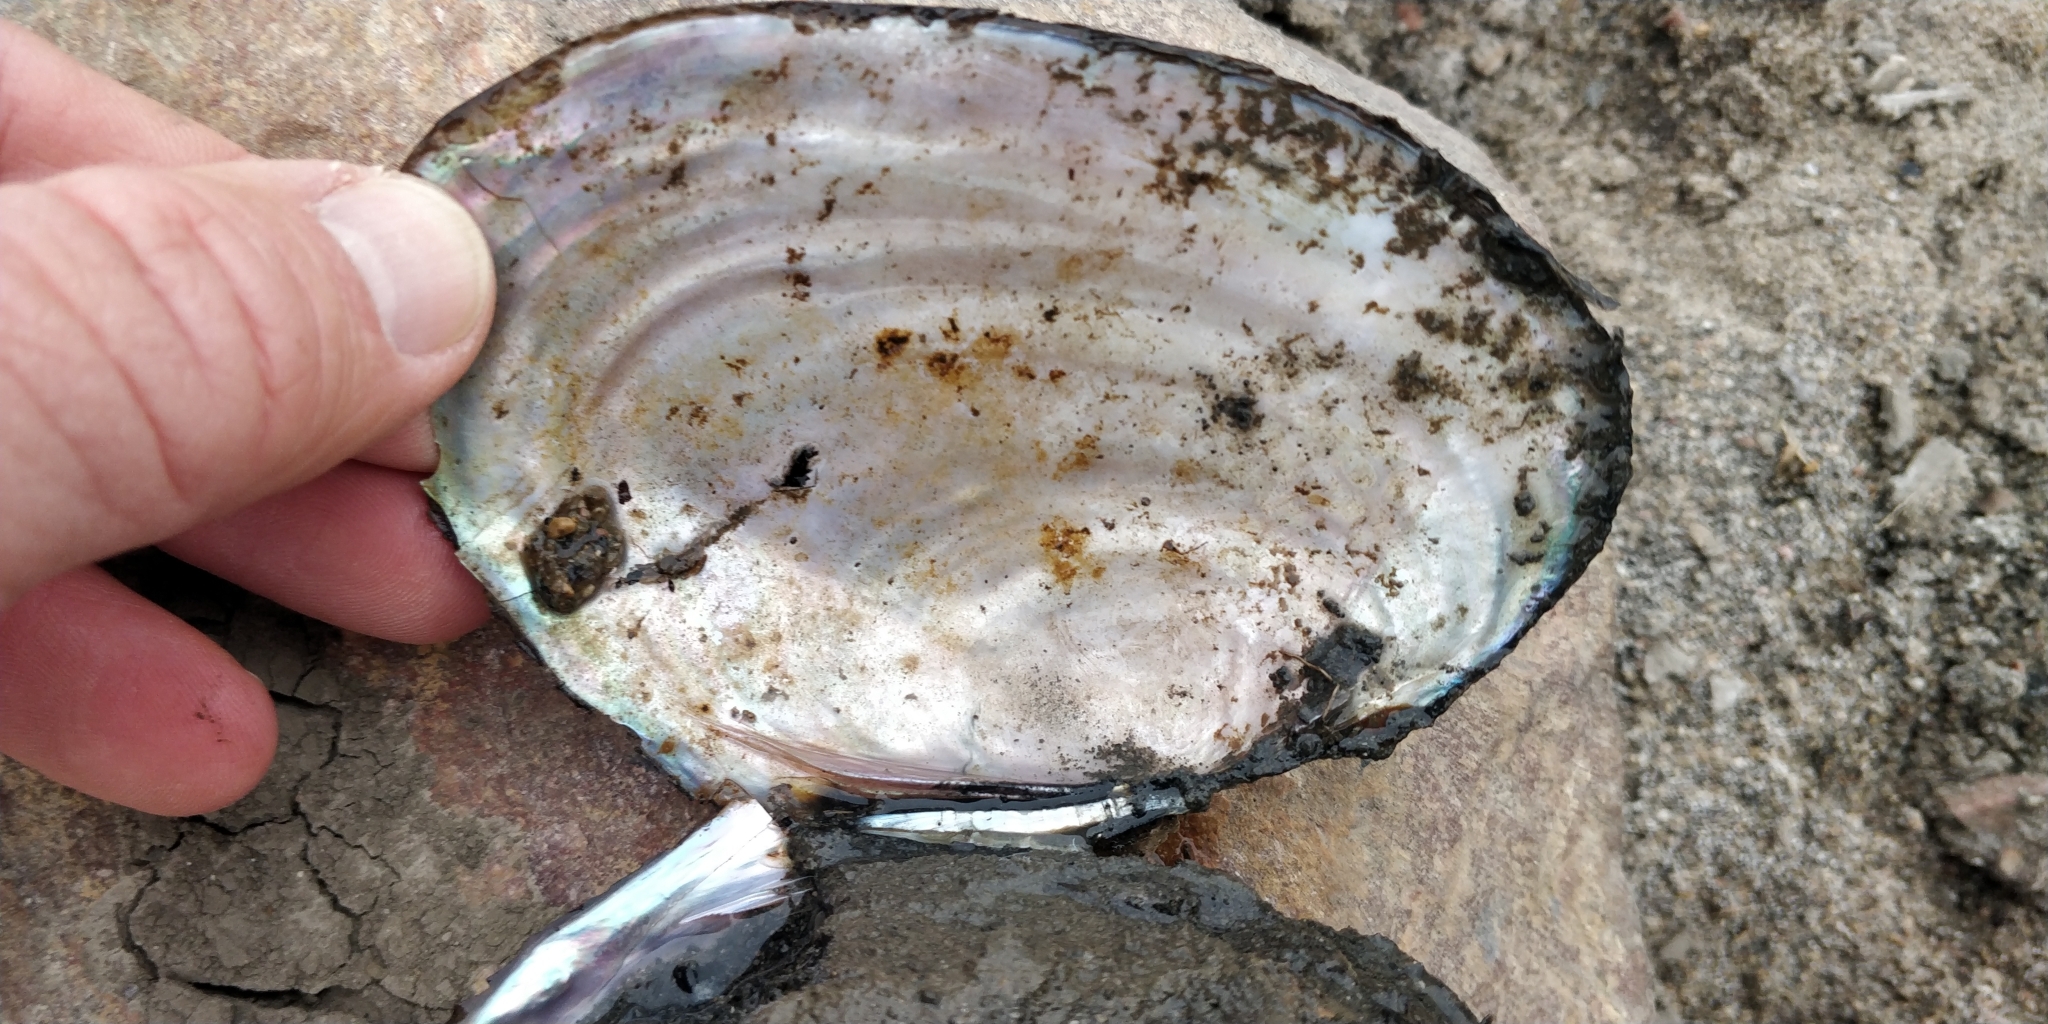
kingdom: Animalia
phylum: Mollusca
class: Bivalvia
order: Unionida
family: Unionidae
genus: Potamilus
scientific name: Potamilus ohiensis
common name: Pink papershell
